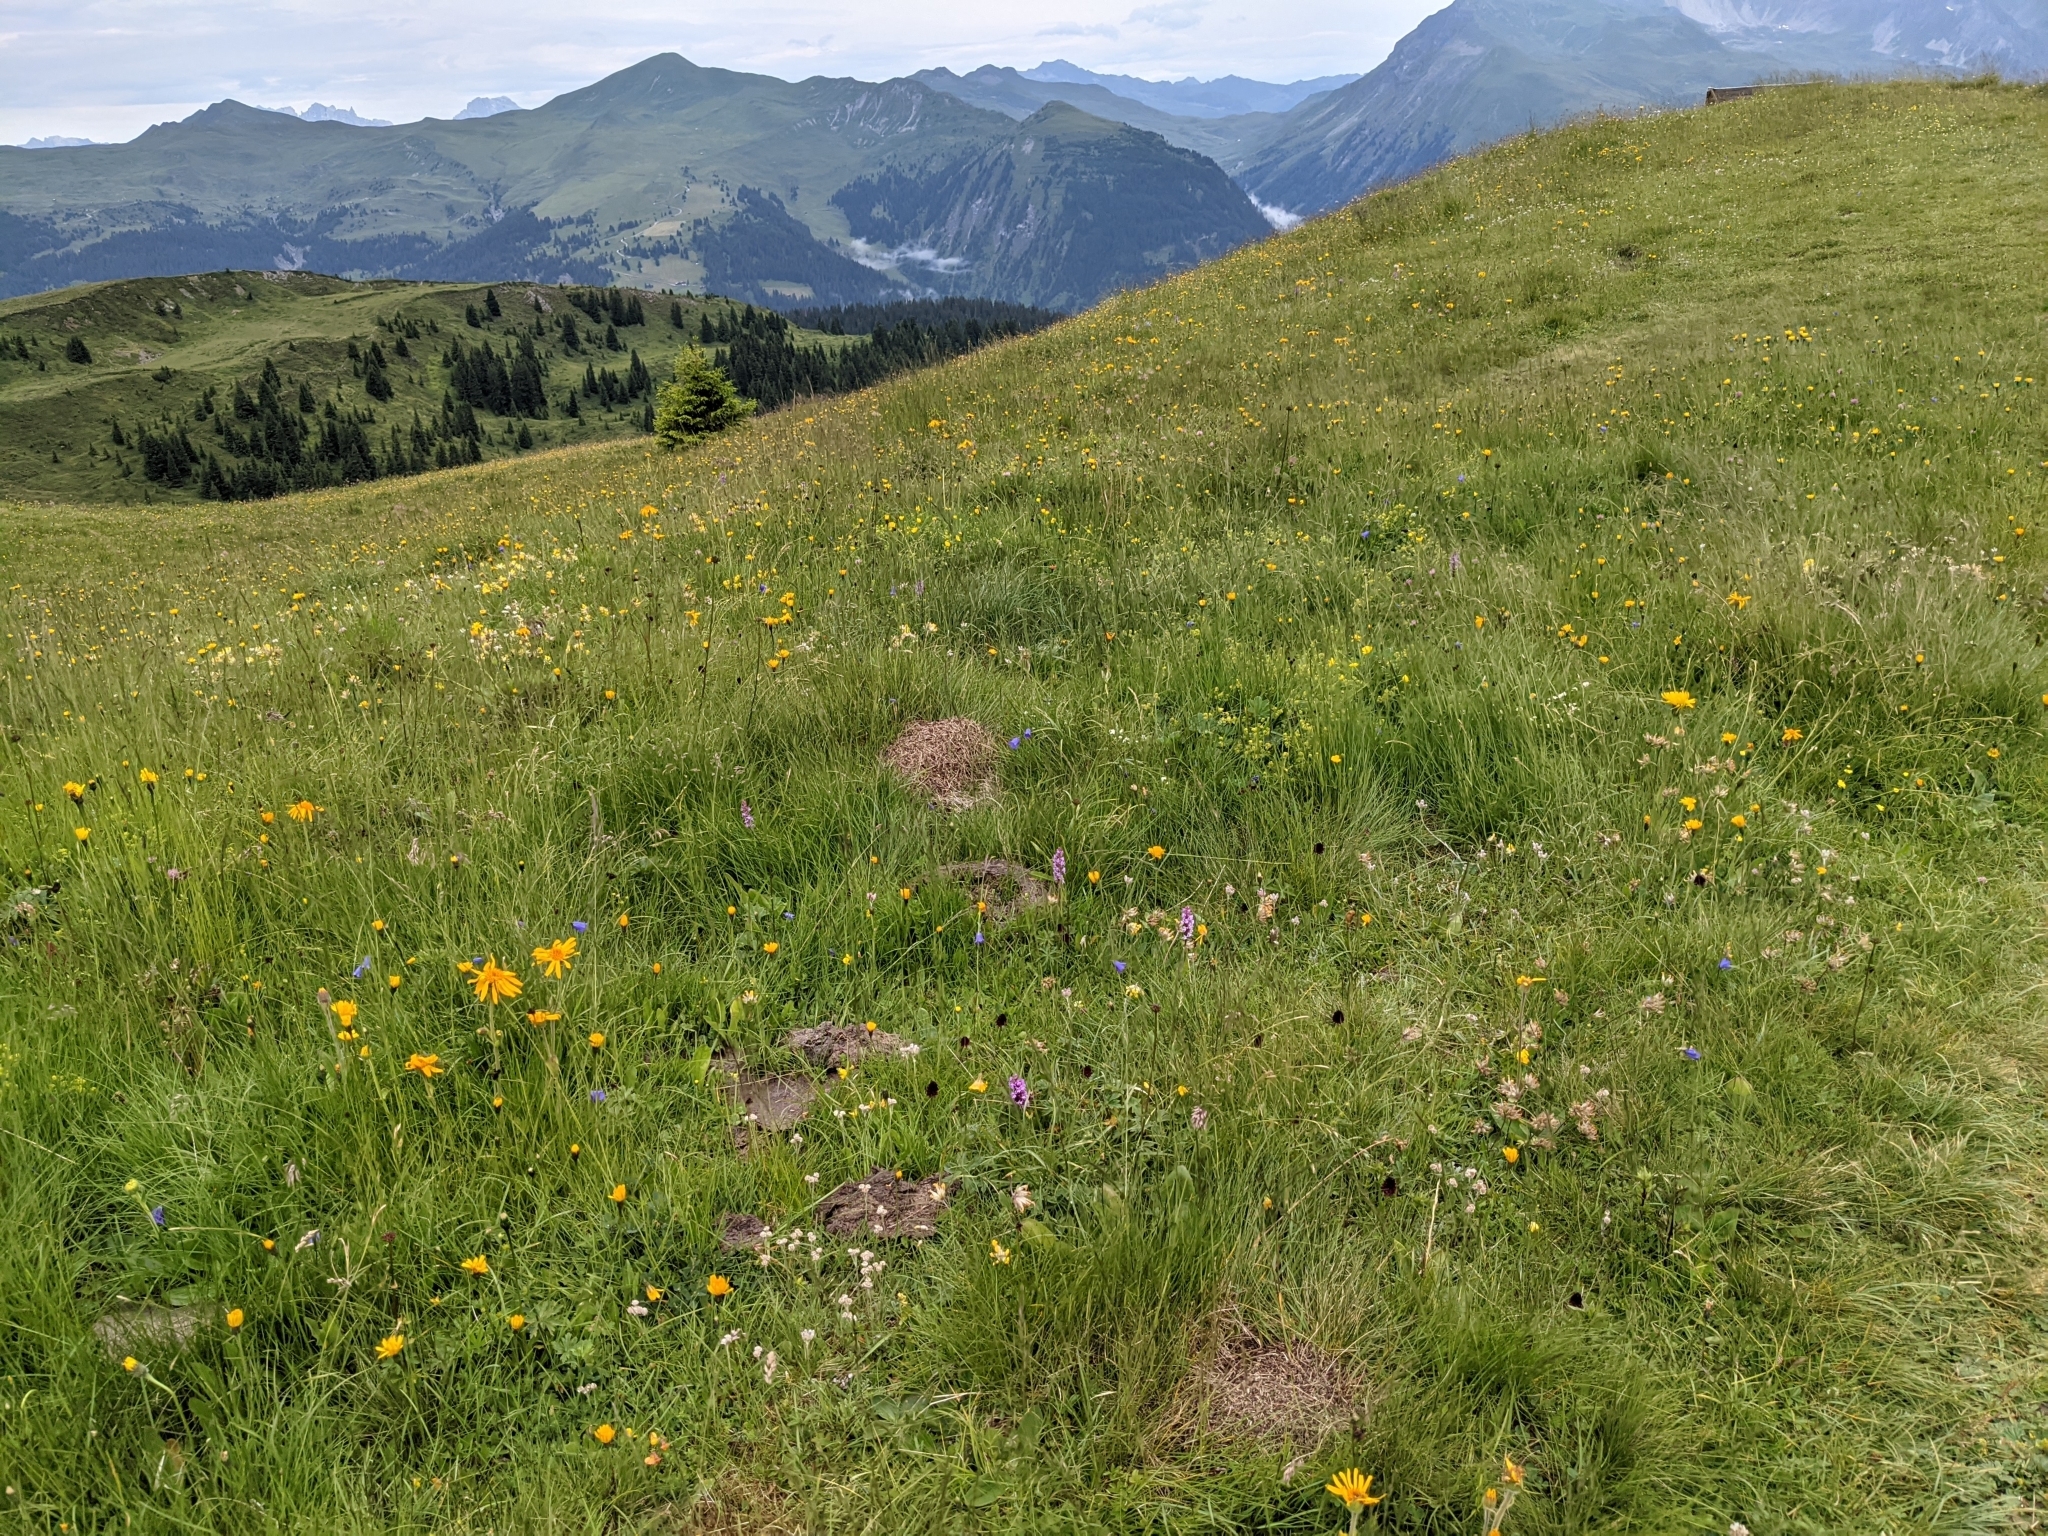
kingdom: Plantae
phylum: Tracheophyta
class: Liliopsida
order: Asparagales
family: Orchidaceae
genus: Gymnadenia
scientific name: Gymnadenia rhellicani
